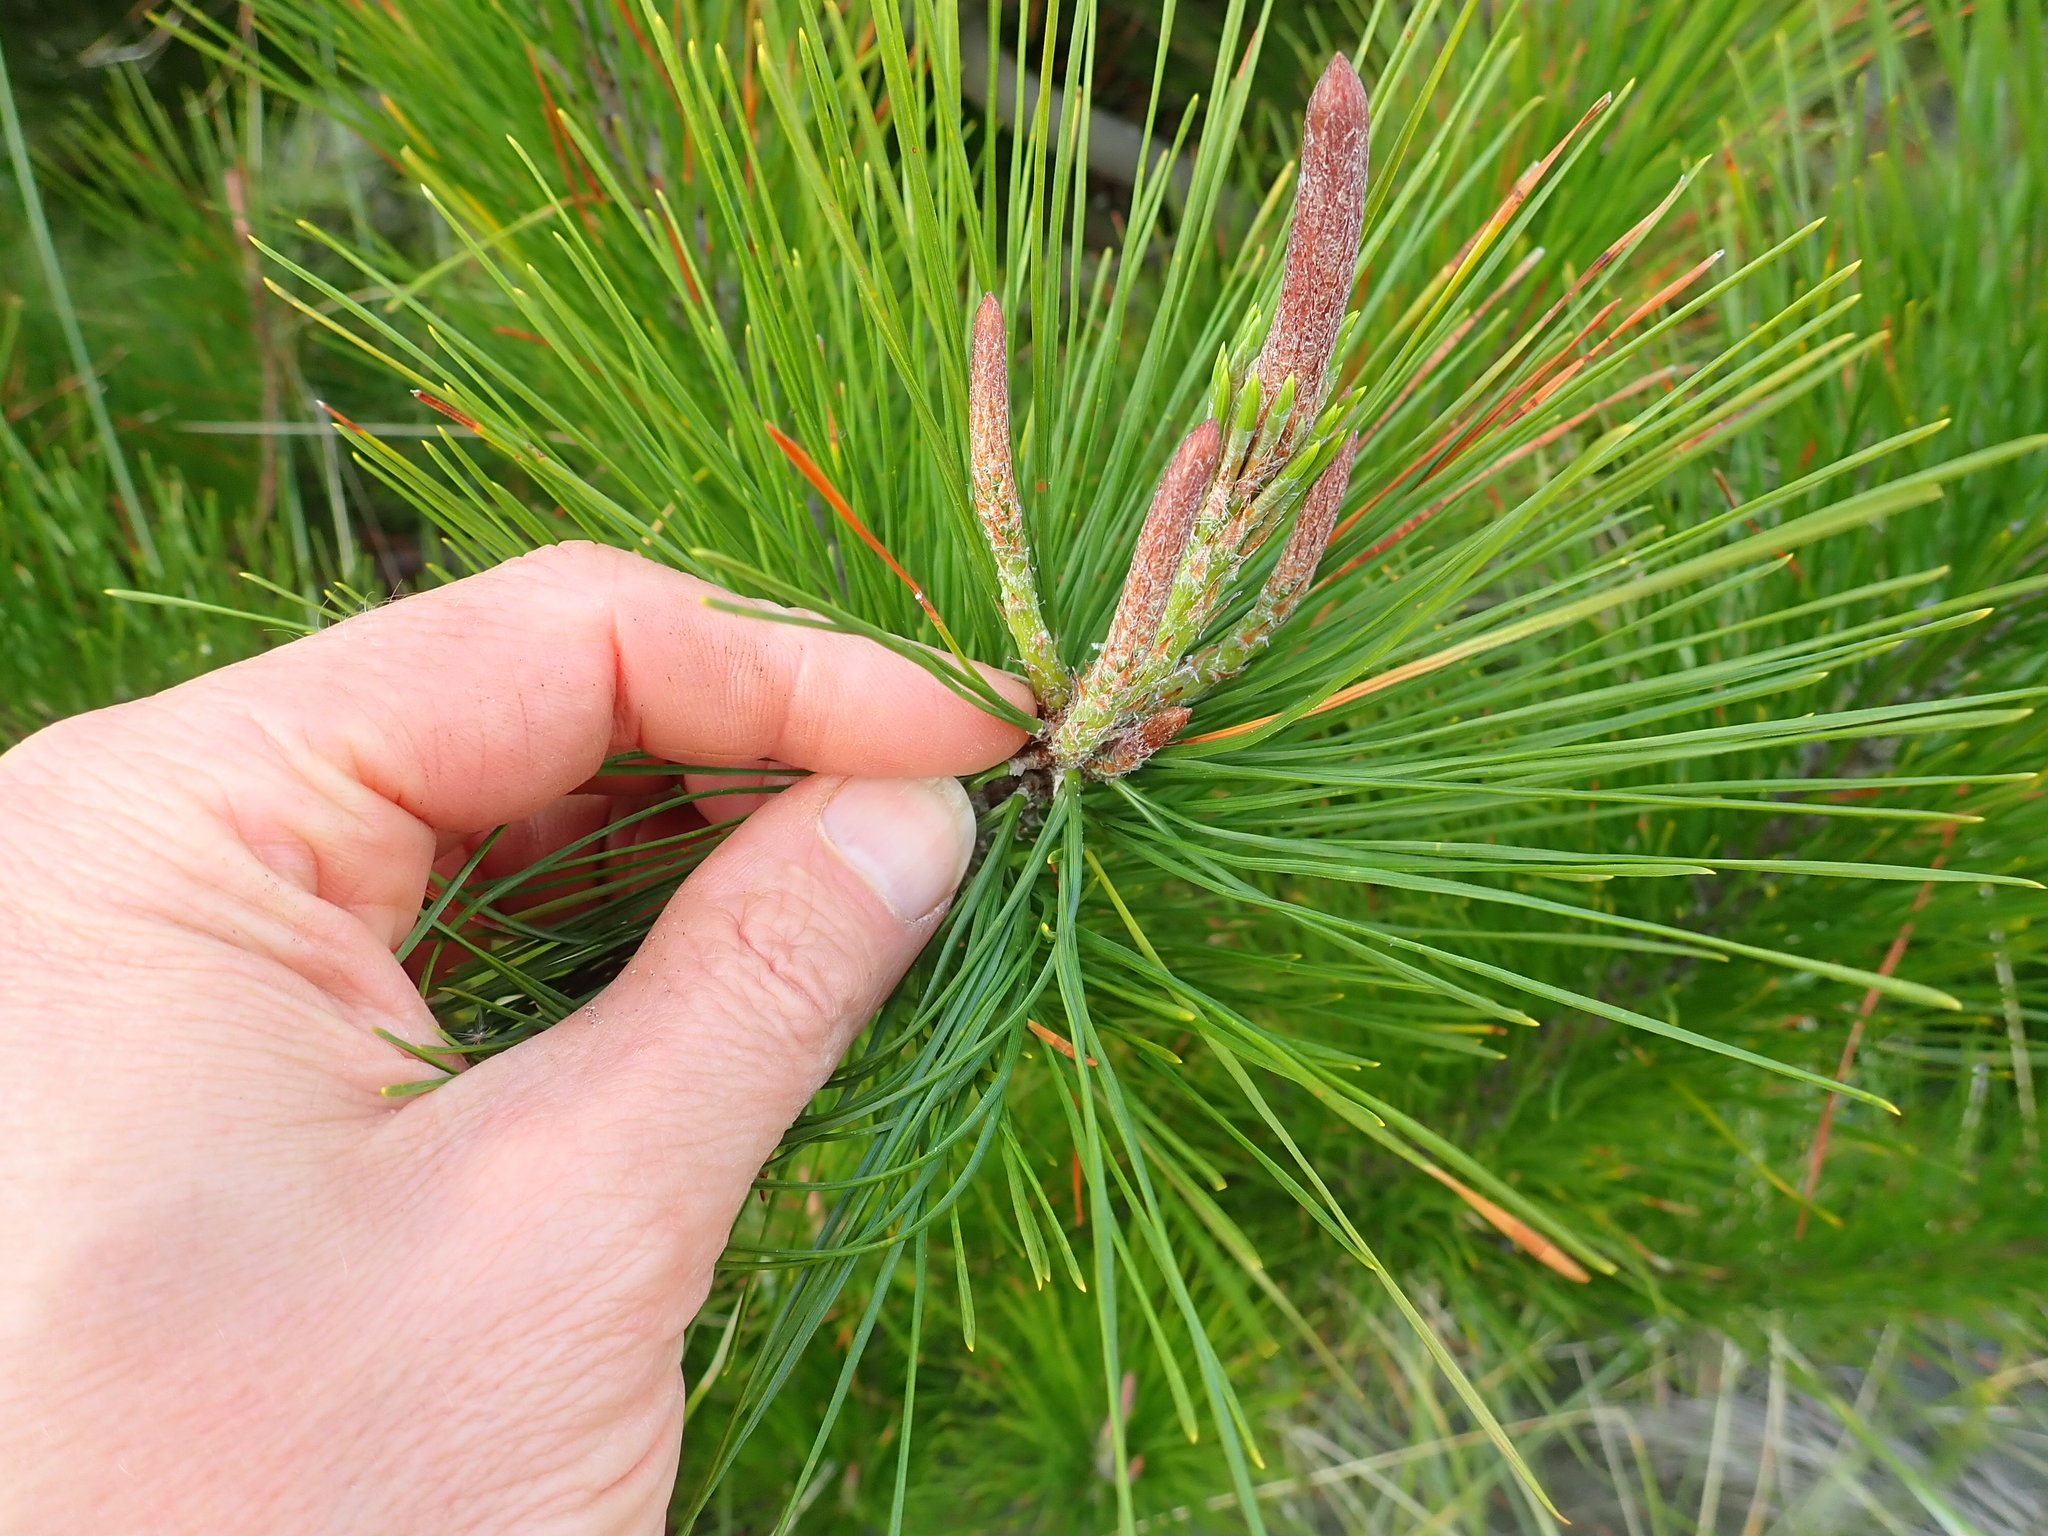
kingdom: Plantae
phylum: Tracheophyta
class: Pinopsida
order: Pinales
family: Pinaceae
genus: Pinus
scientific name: Pinus radiata
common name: Monterey pine
